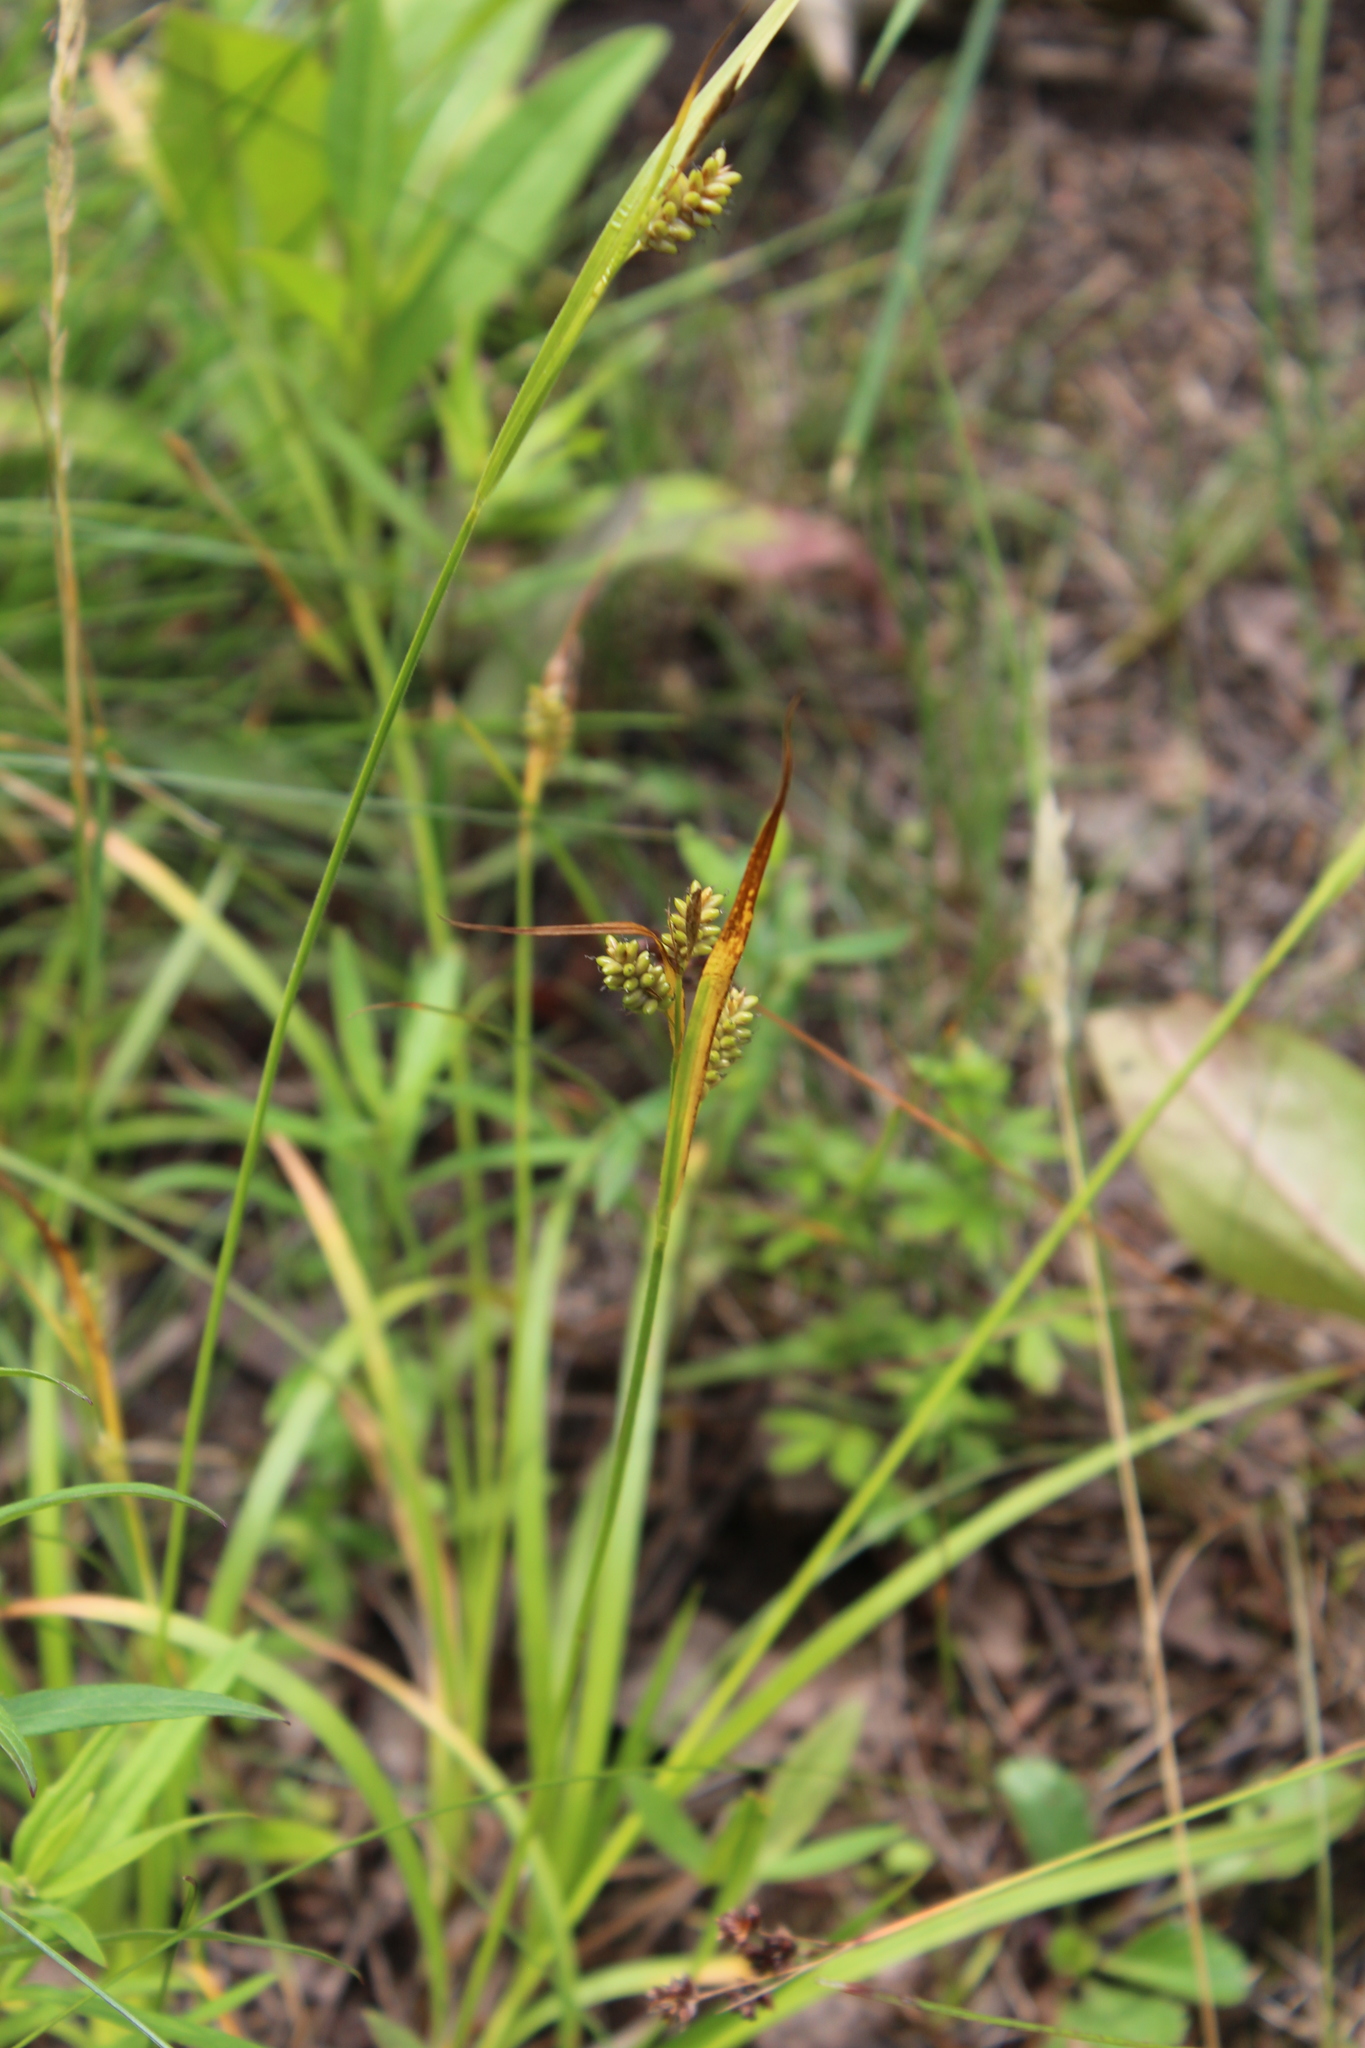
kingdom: Plantae
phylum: Tracheophyta
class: Liliopsida
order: Poales
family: Cyperaceae
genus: Carex
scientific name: Carex pallescens
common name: Pale sedge
